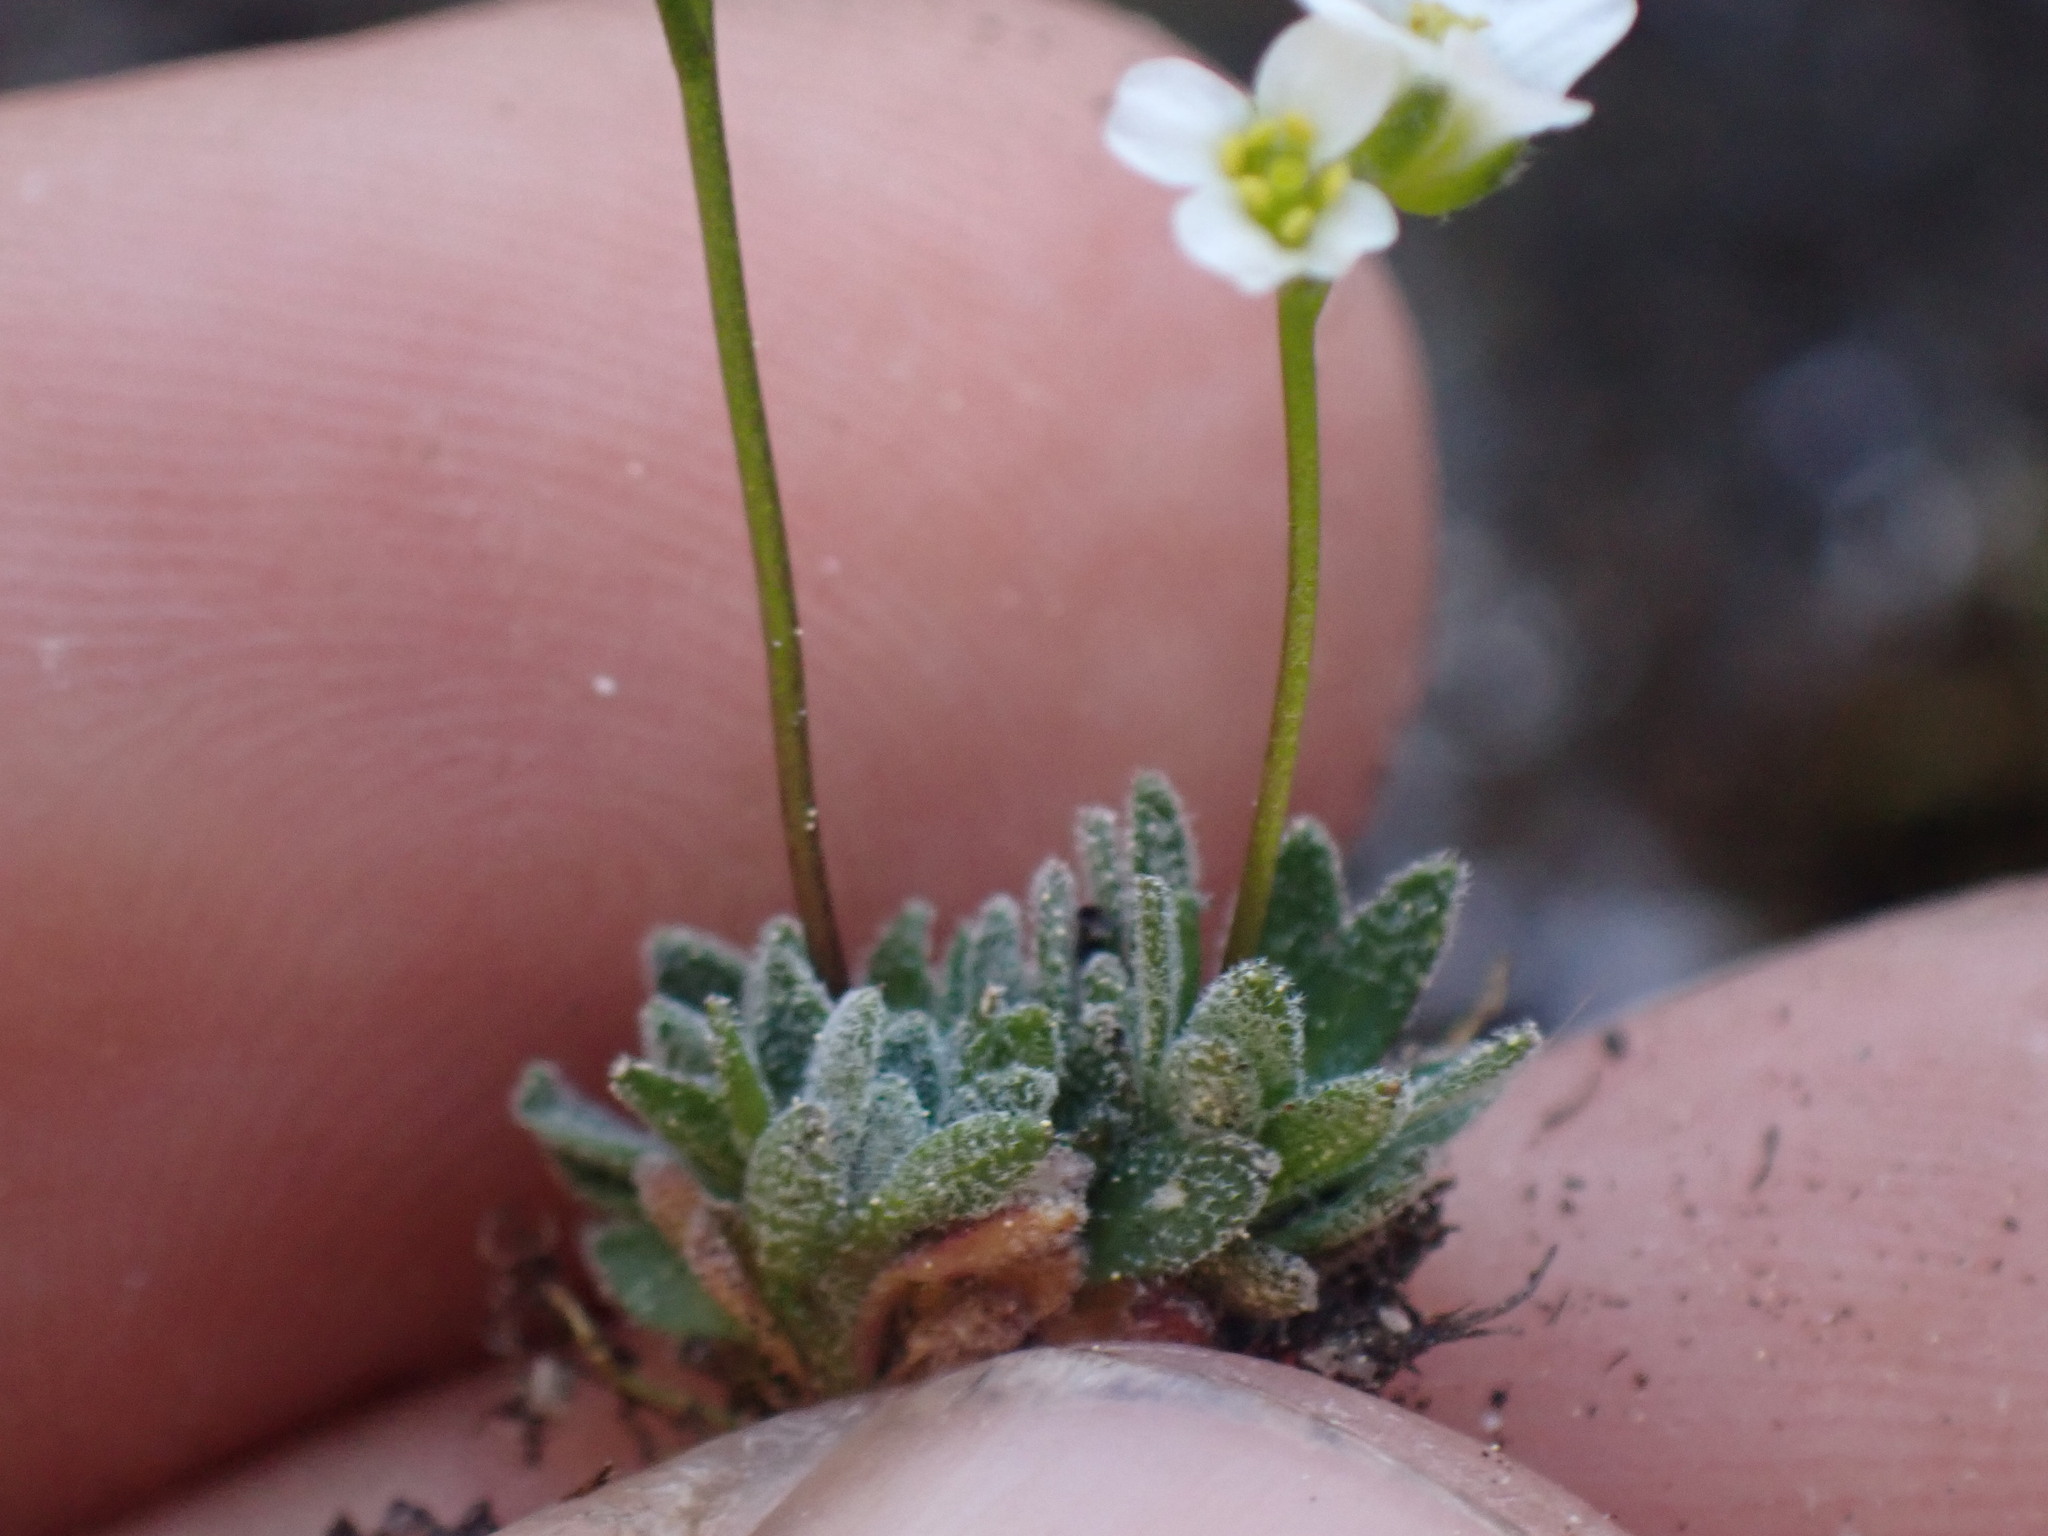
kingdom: Plantae
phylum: Tracheophyta
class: Magnoliopsida
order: Brassicales
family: Brassicaceae
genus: Draba
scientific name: Draba lonchocarpa
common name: Lance-fruit draba
